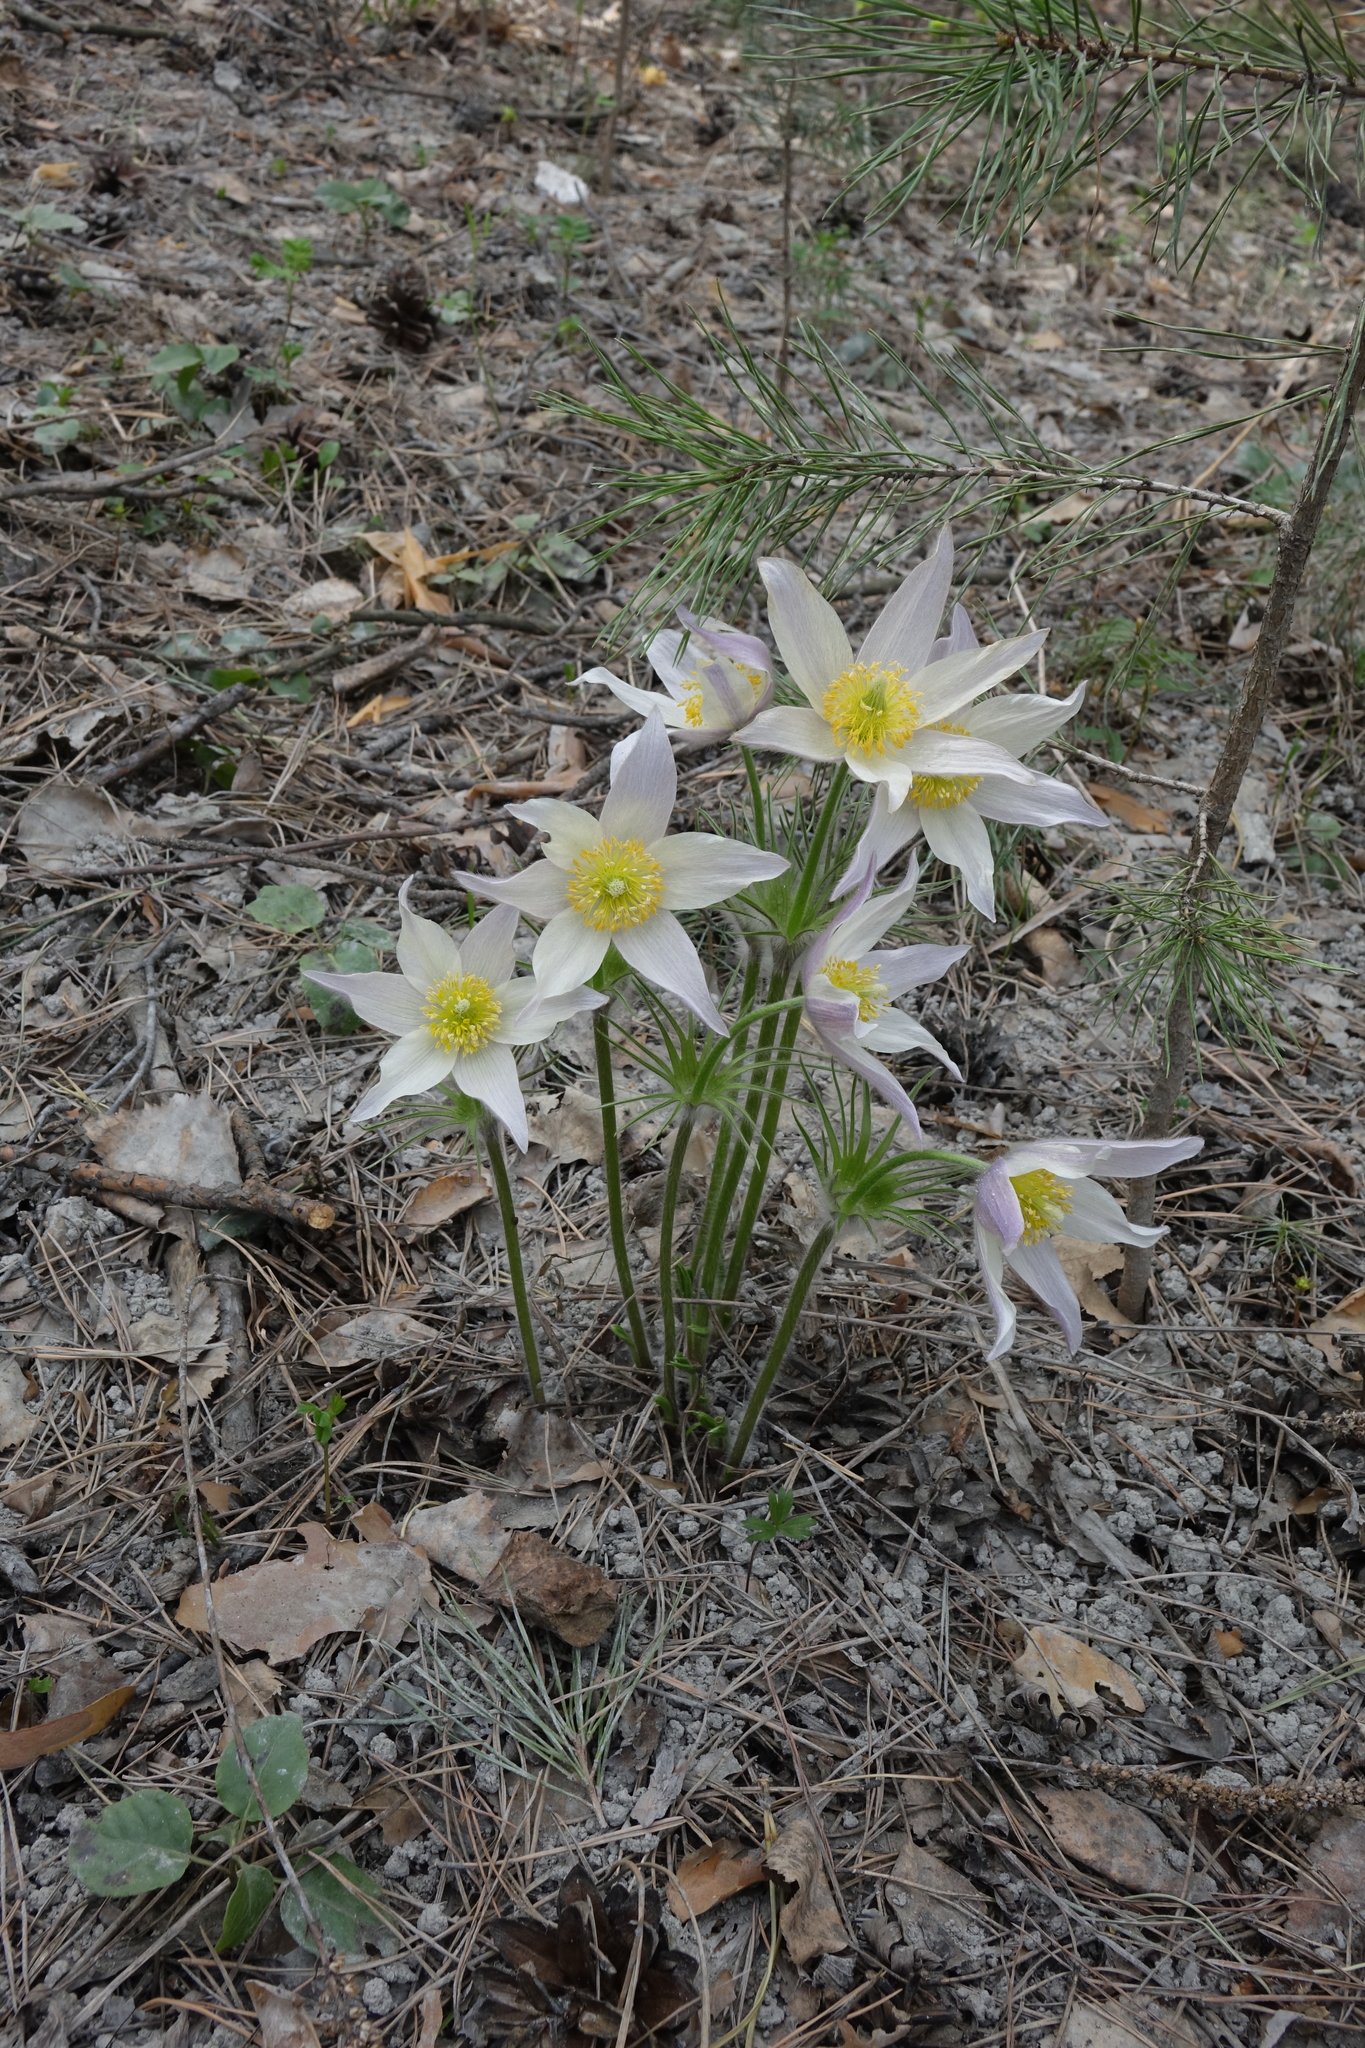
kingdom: Plantae
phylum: Tracheophyta
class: Magnoliopsida
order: Ranunculales
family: Ranunculaceae
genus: Pulsatilla
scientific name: Pulsatilla patens
